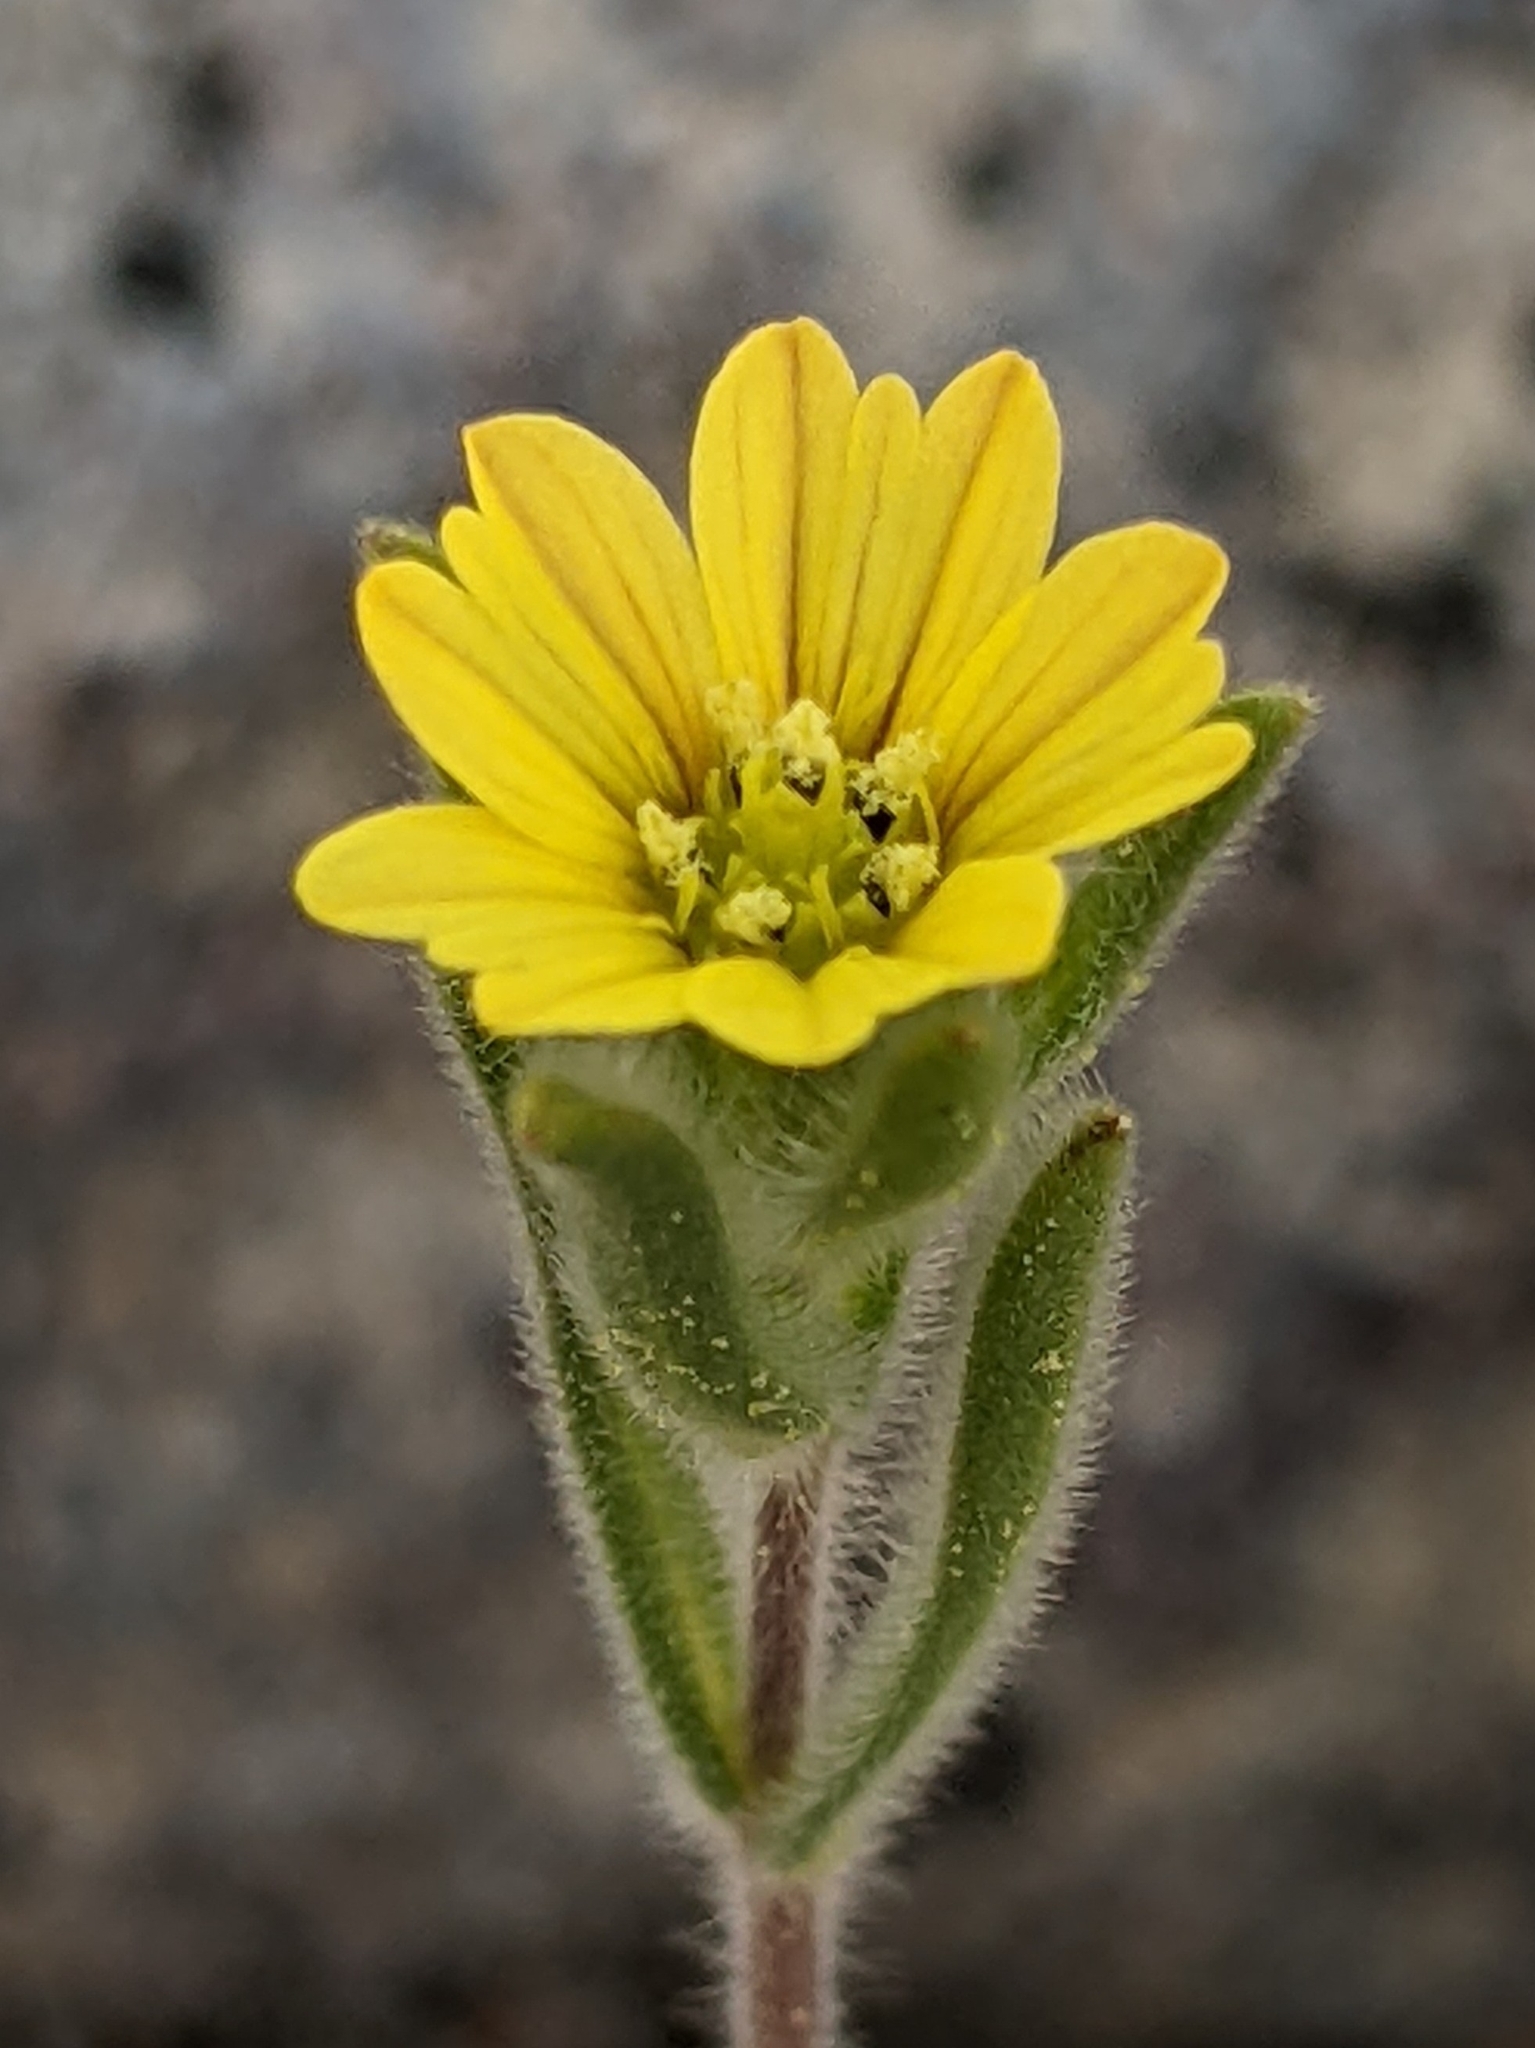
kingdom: Plantae
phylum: Tracheophyta
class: Magnoliopsida
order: Asterales
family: Asteraceae
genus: Lagophylla
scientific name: Lagophylla ramosissima
